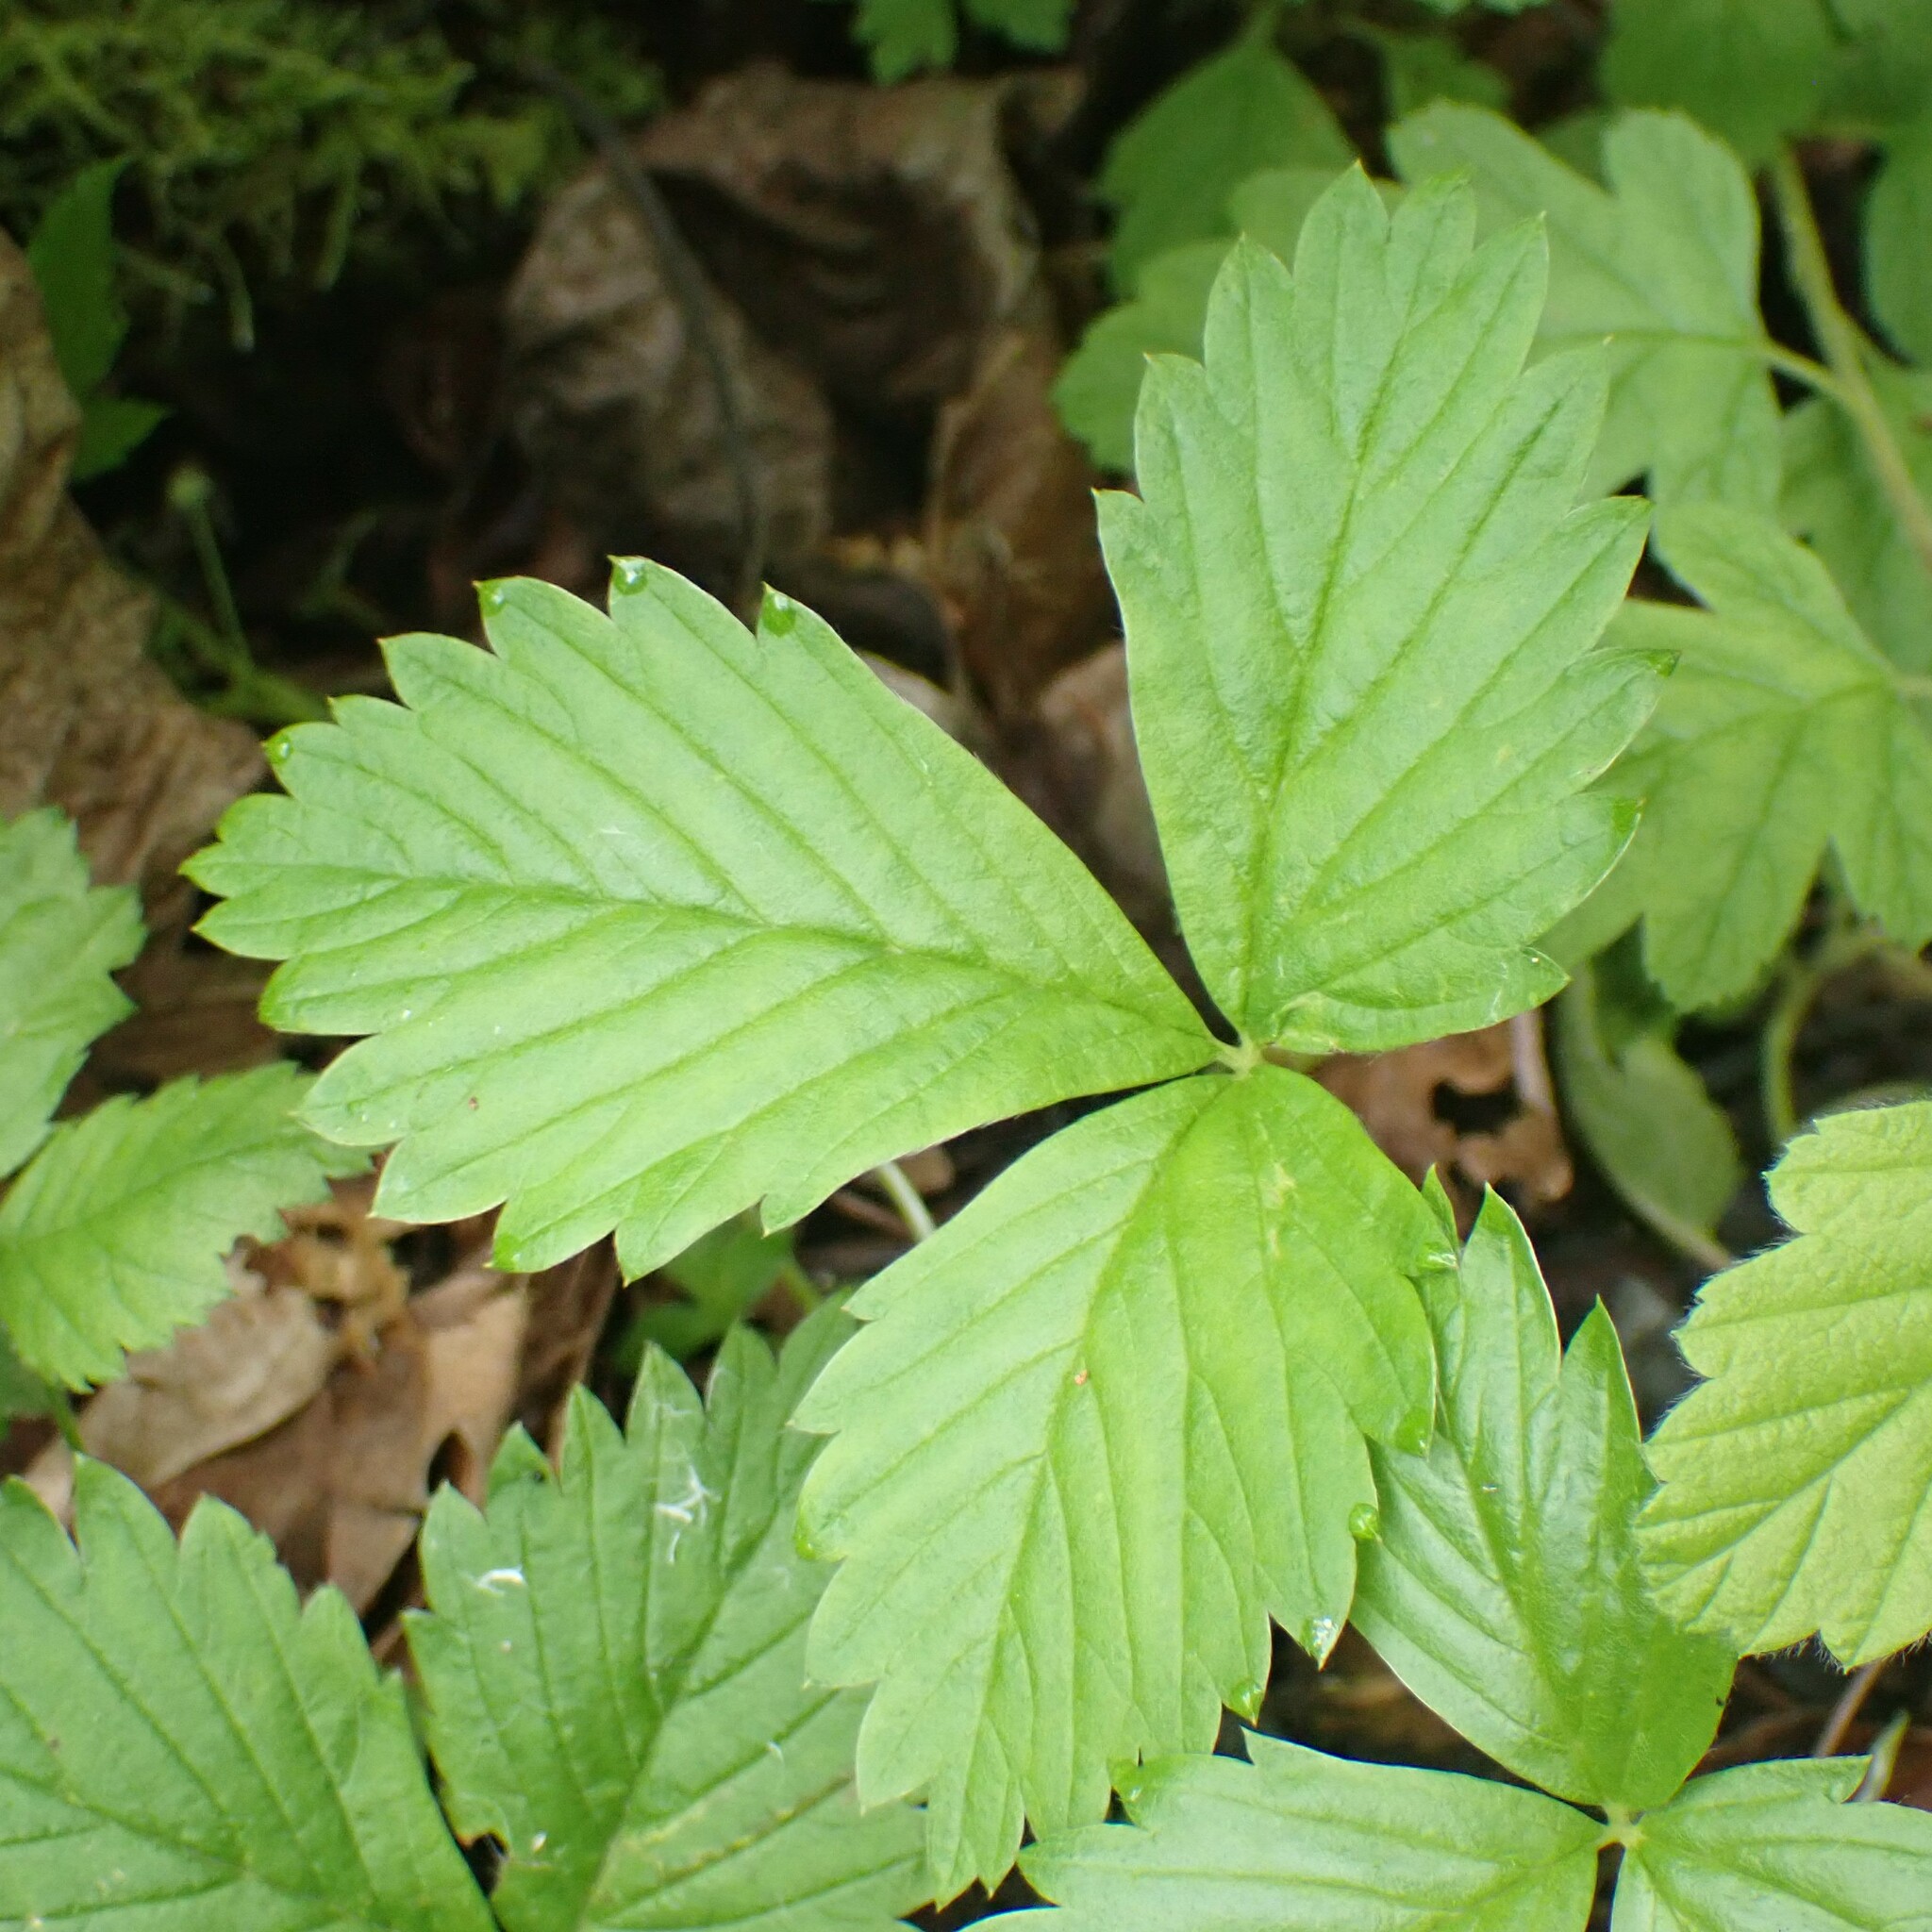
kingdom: Plantae
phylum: Tracheophyta
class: Magnoliopsida
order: Rosales
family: Rosaceae
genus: Fragaria
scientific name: Fragaria vesca
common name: Wild strawberry
